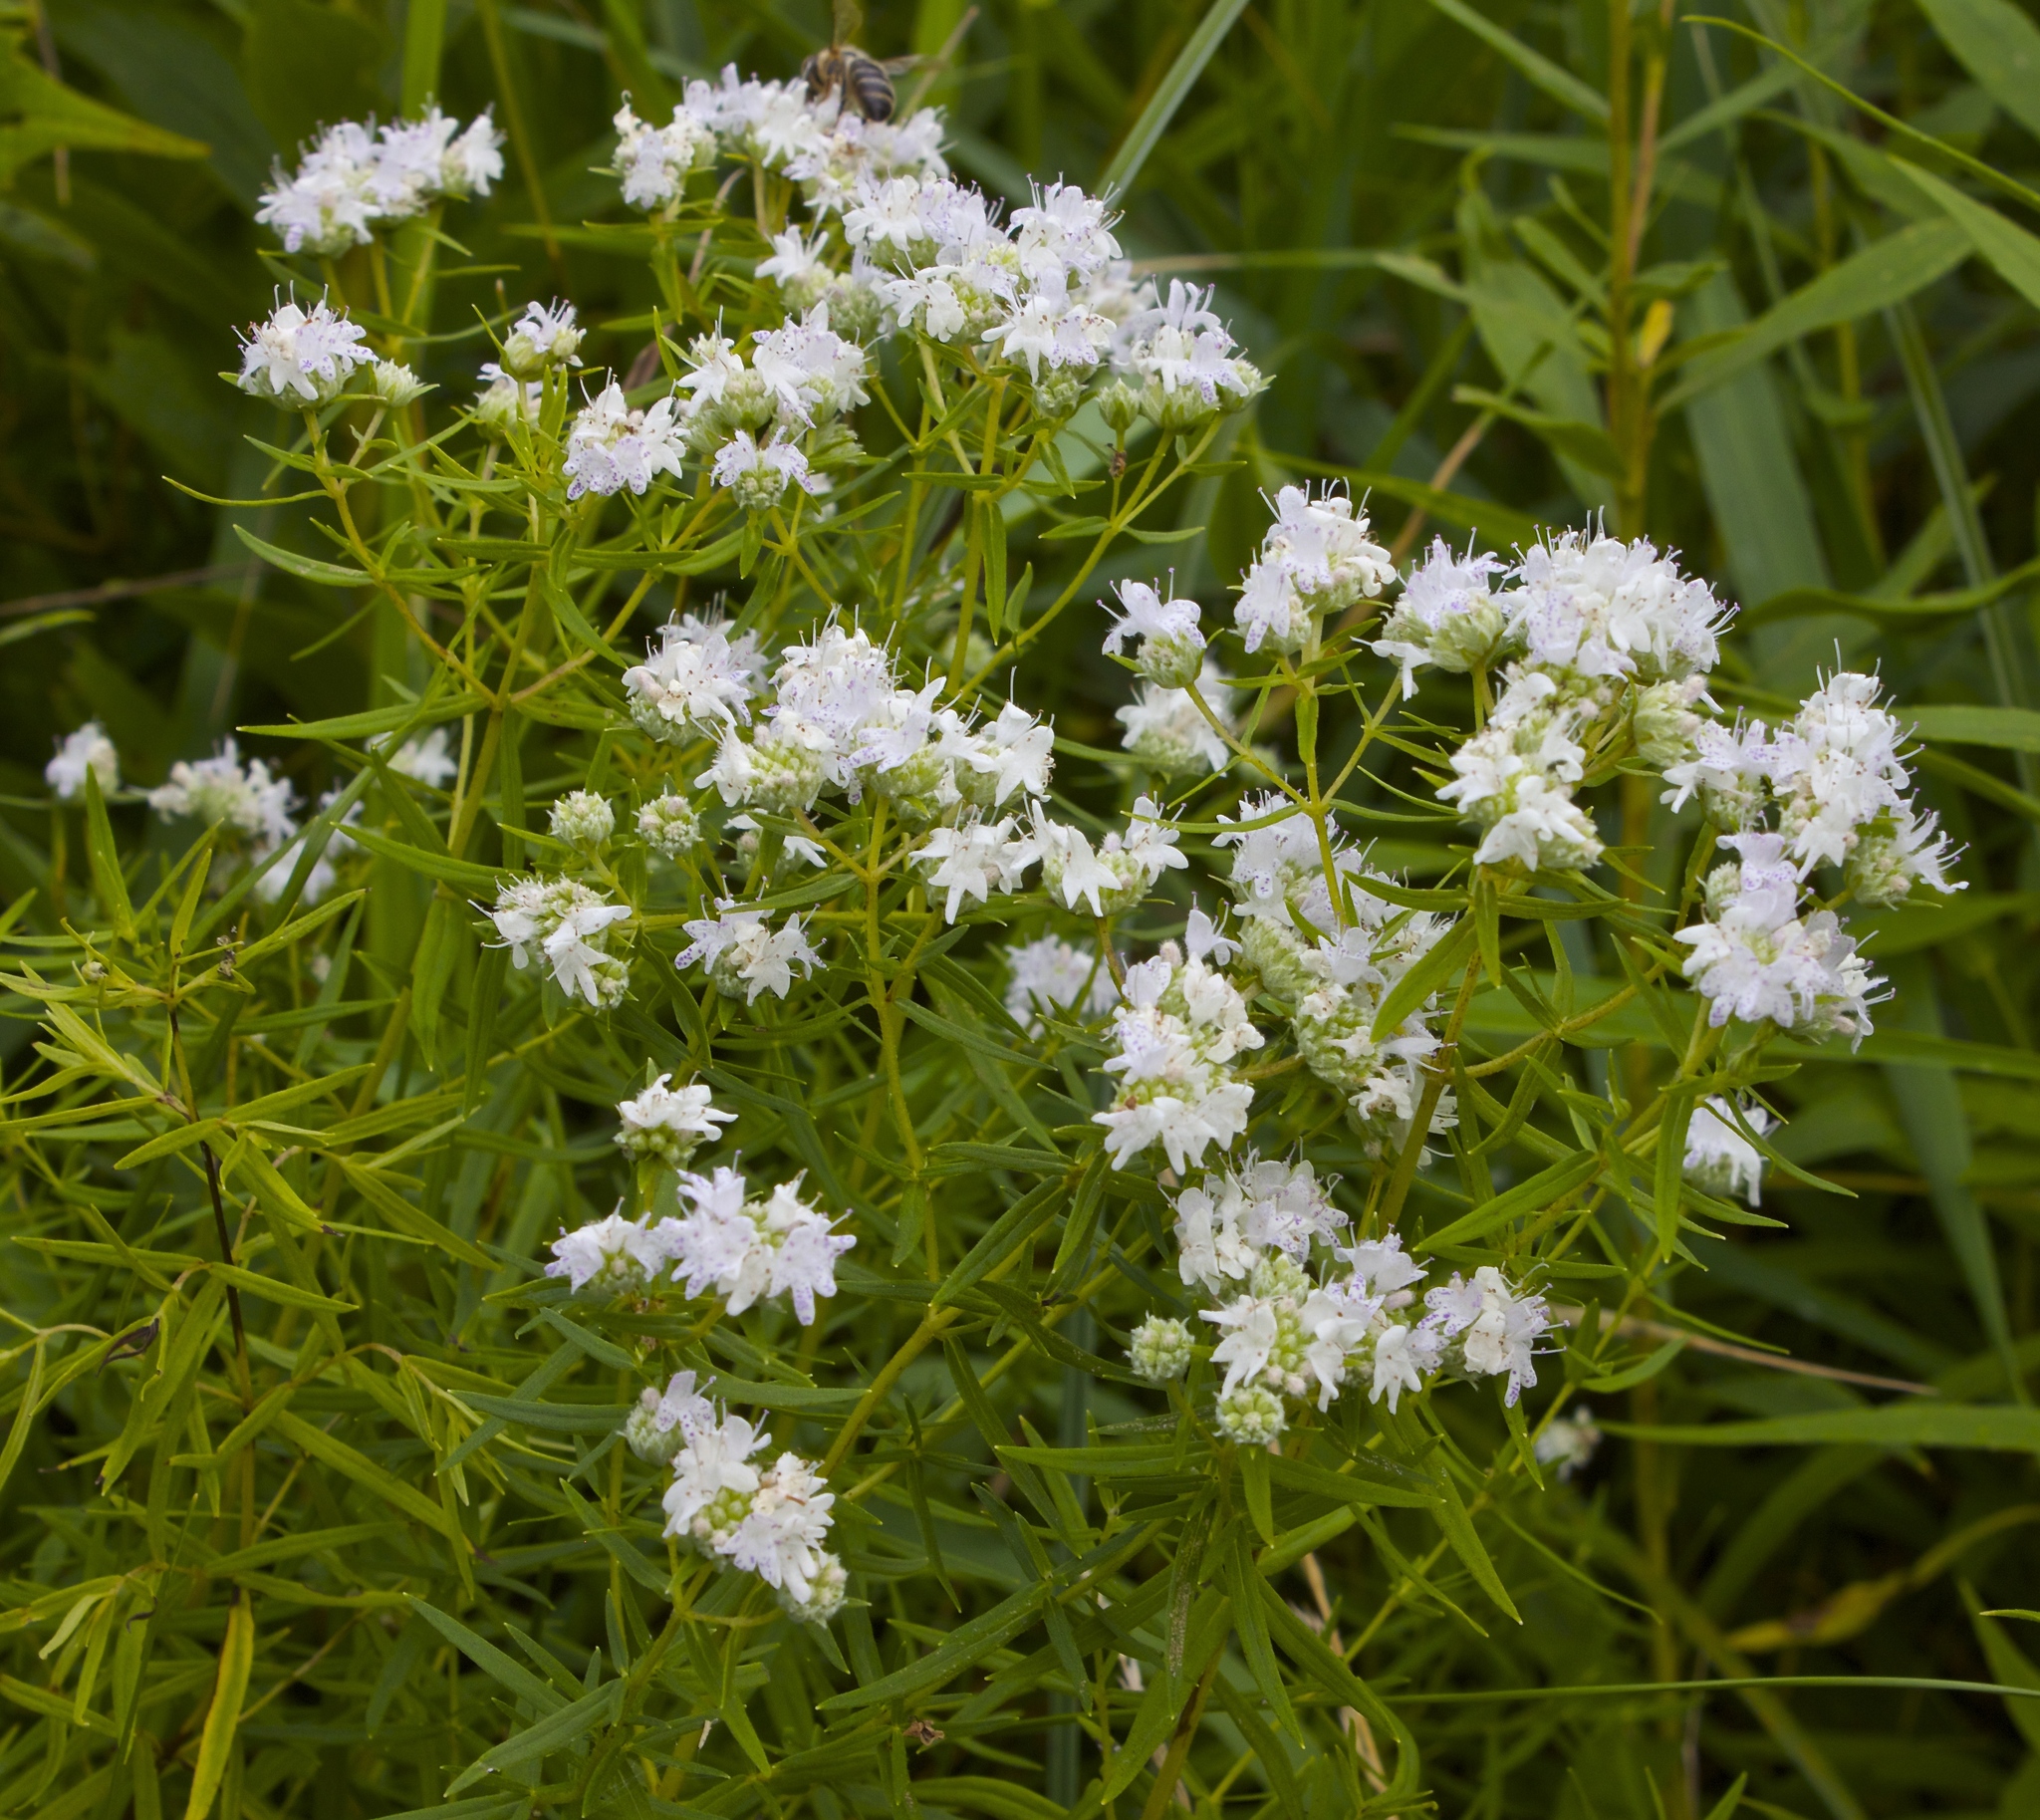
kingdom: Plantae
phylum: Tracheophyta
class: Magnoliopsida
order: Lamiales
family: Lamiaceae
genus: Pycnanthemum
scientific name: Pycnanthemum tenuifolium
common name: Narrow-leaf mountain-mint
